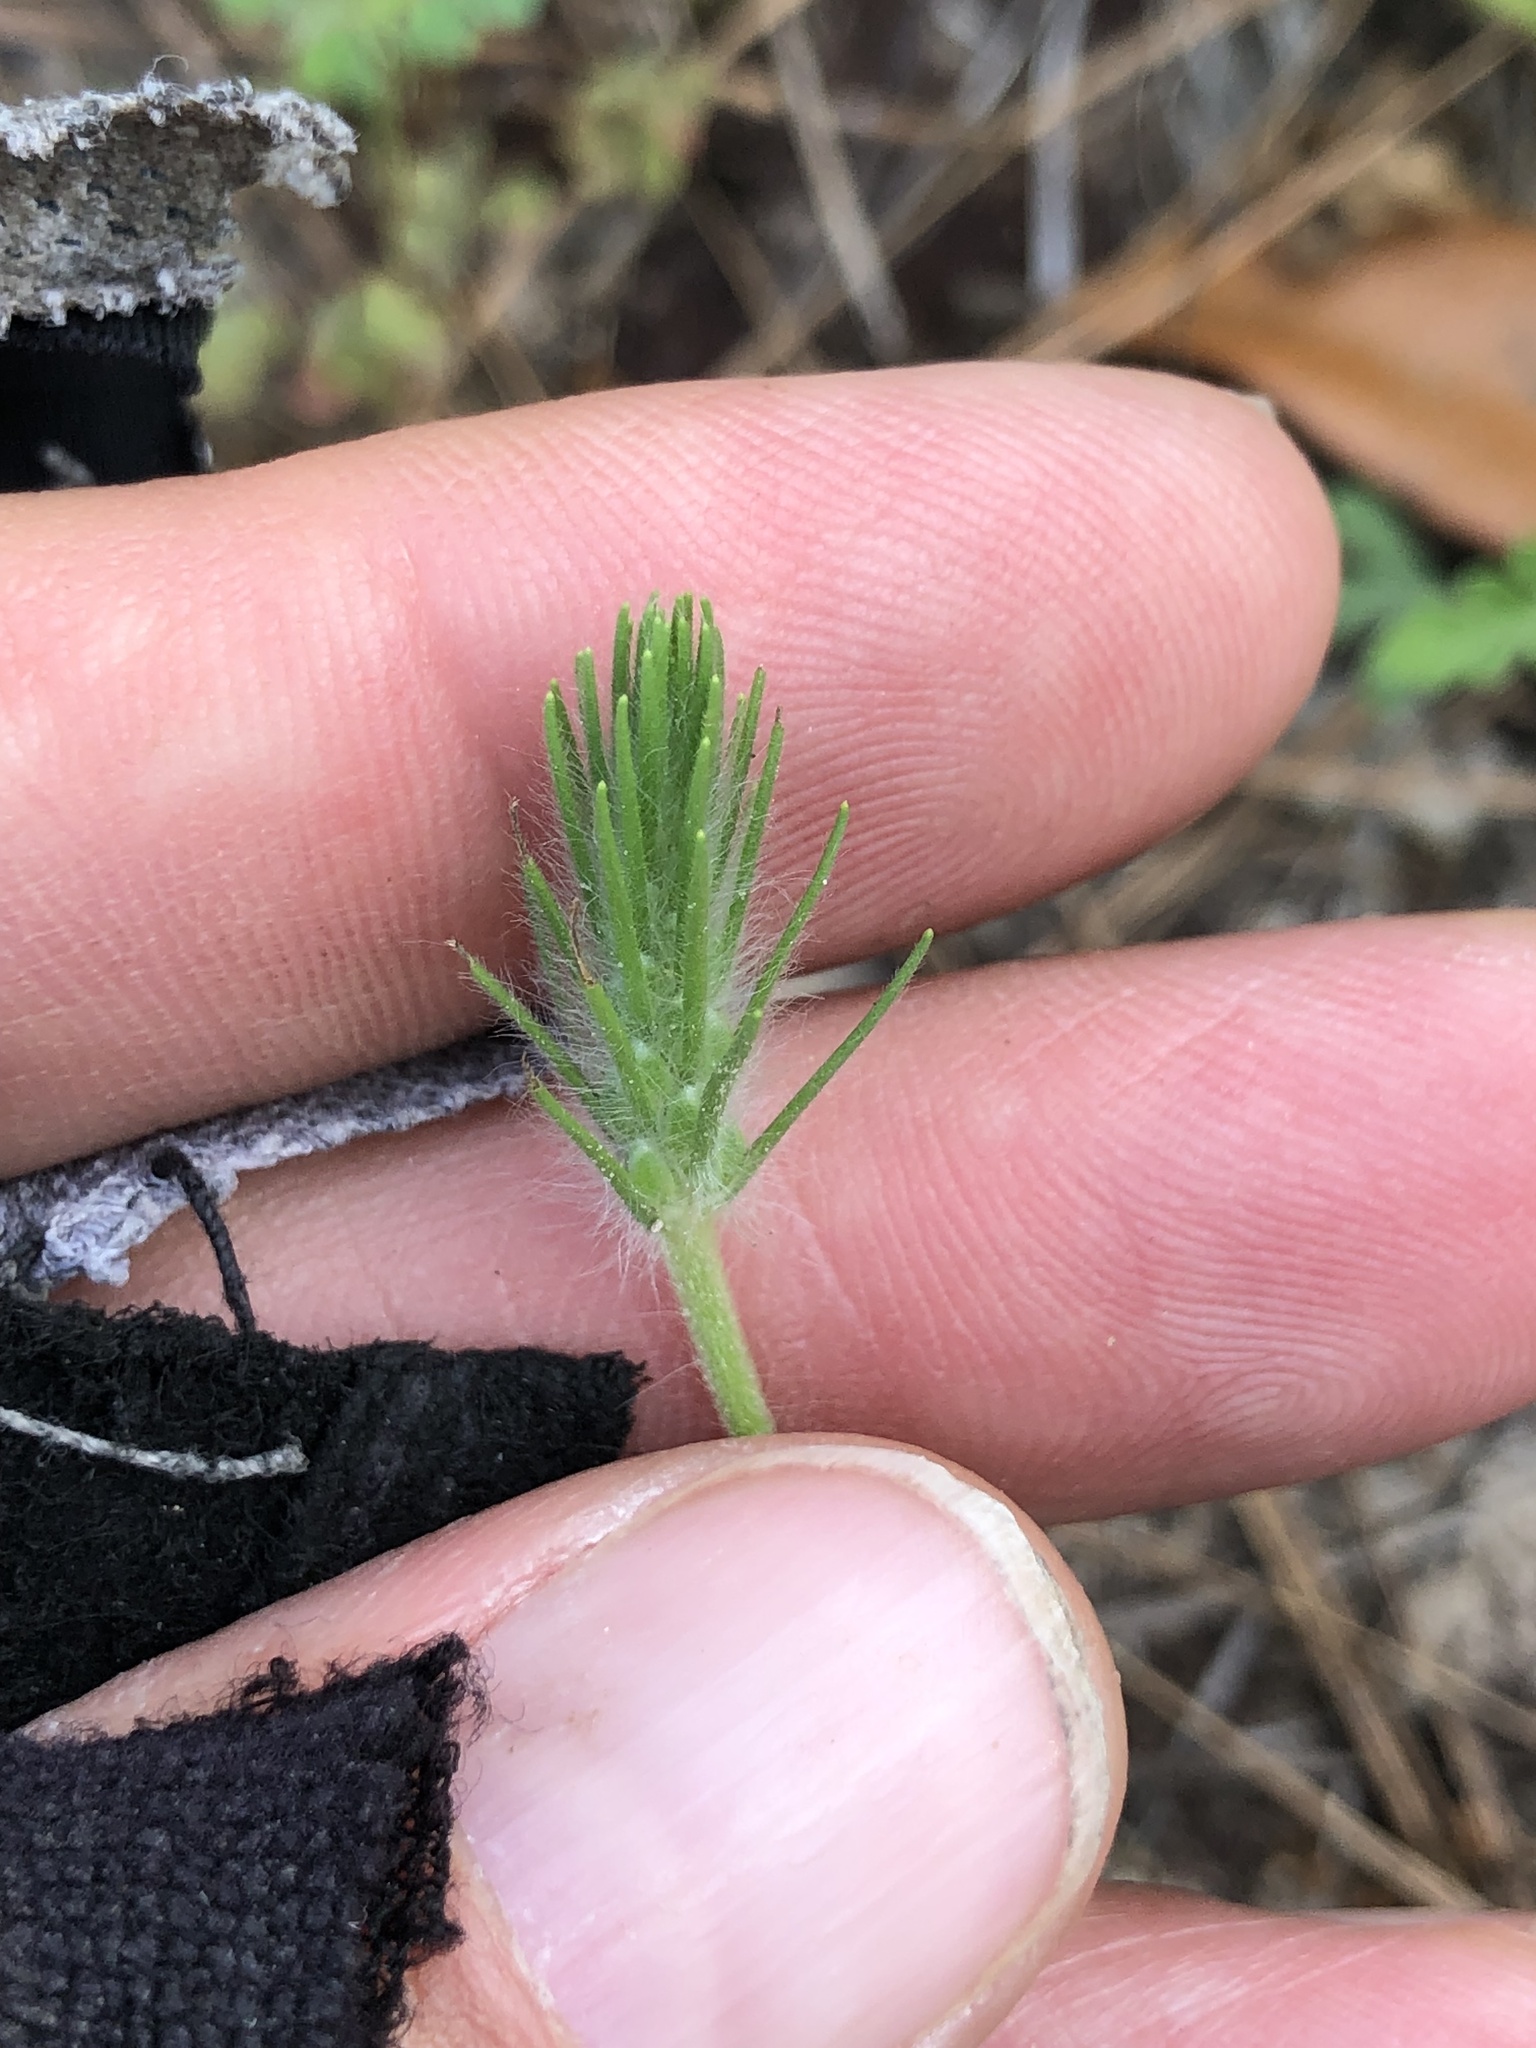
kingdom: Plantae
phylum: Tracheophyta
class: Magnoliopsida
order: Lamiales
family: Plantaginaceae
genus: Plantago
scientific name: Plantago aristata
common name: Bracted plantain
